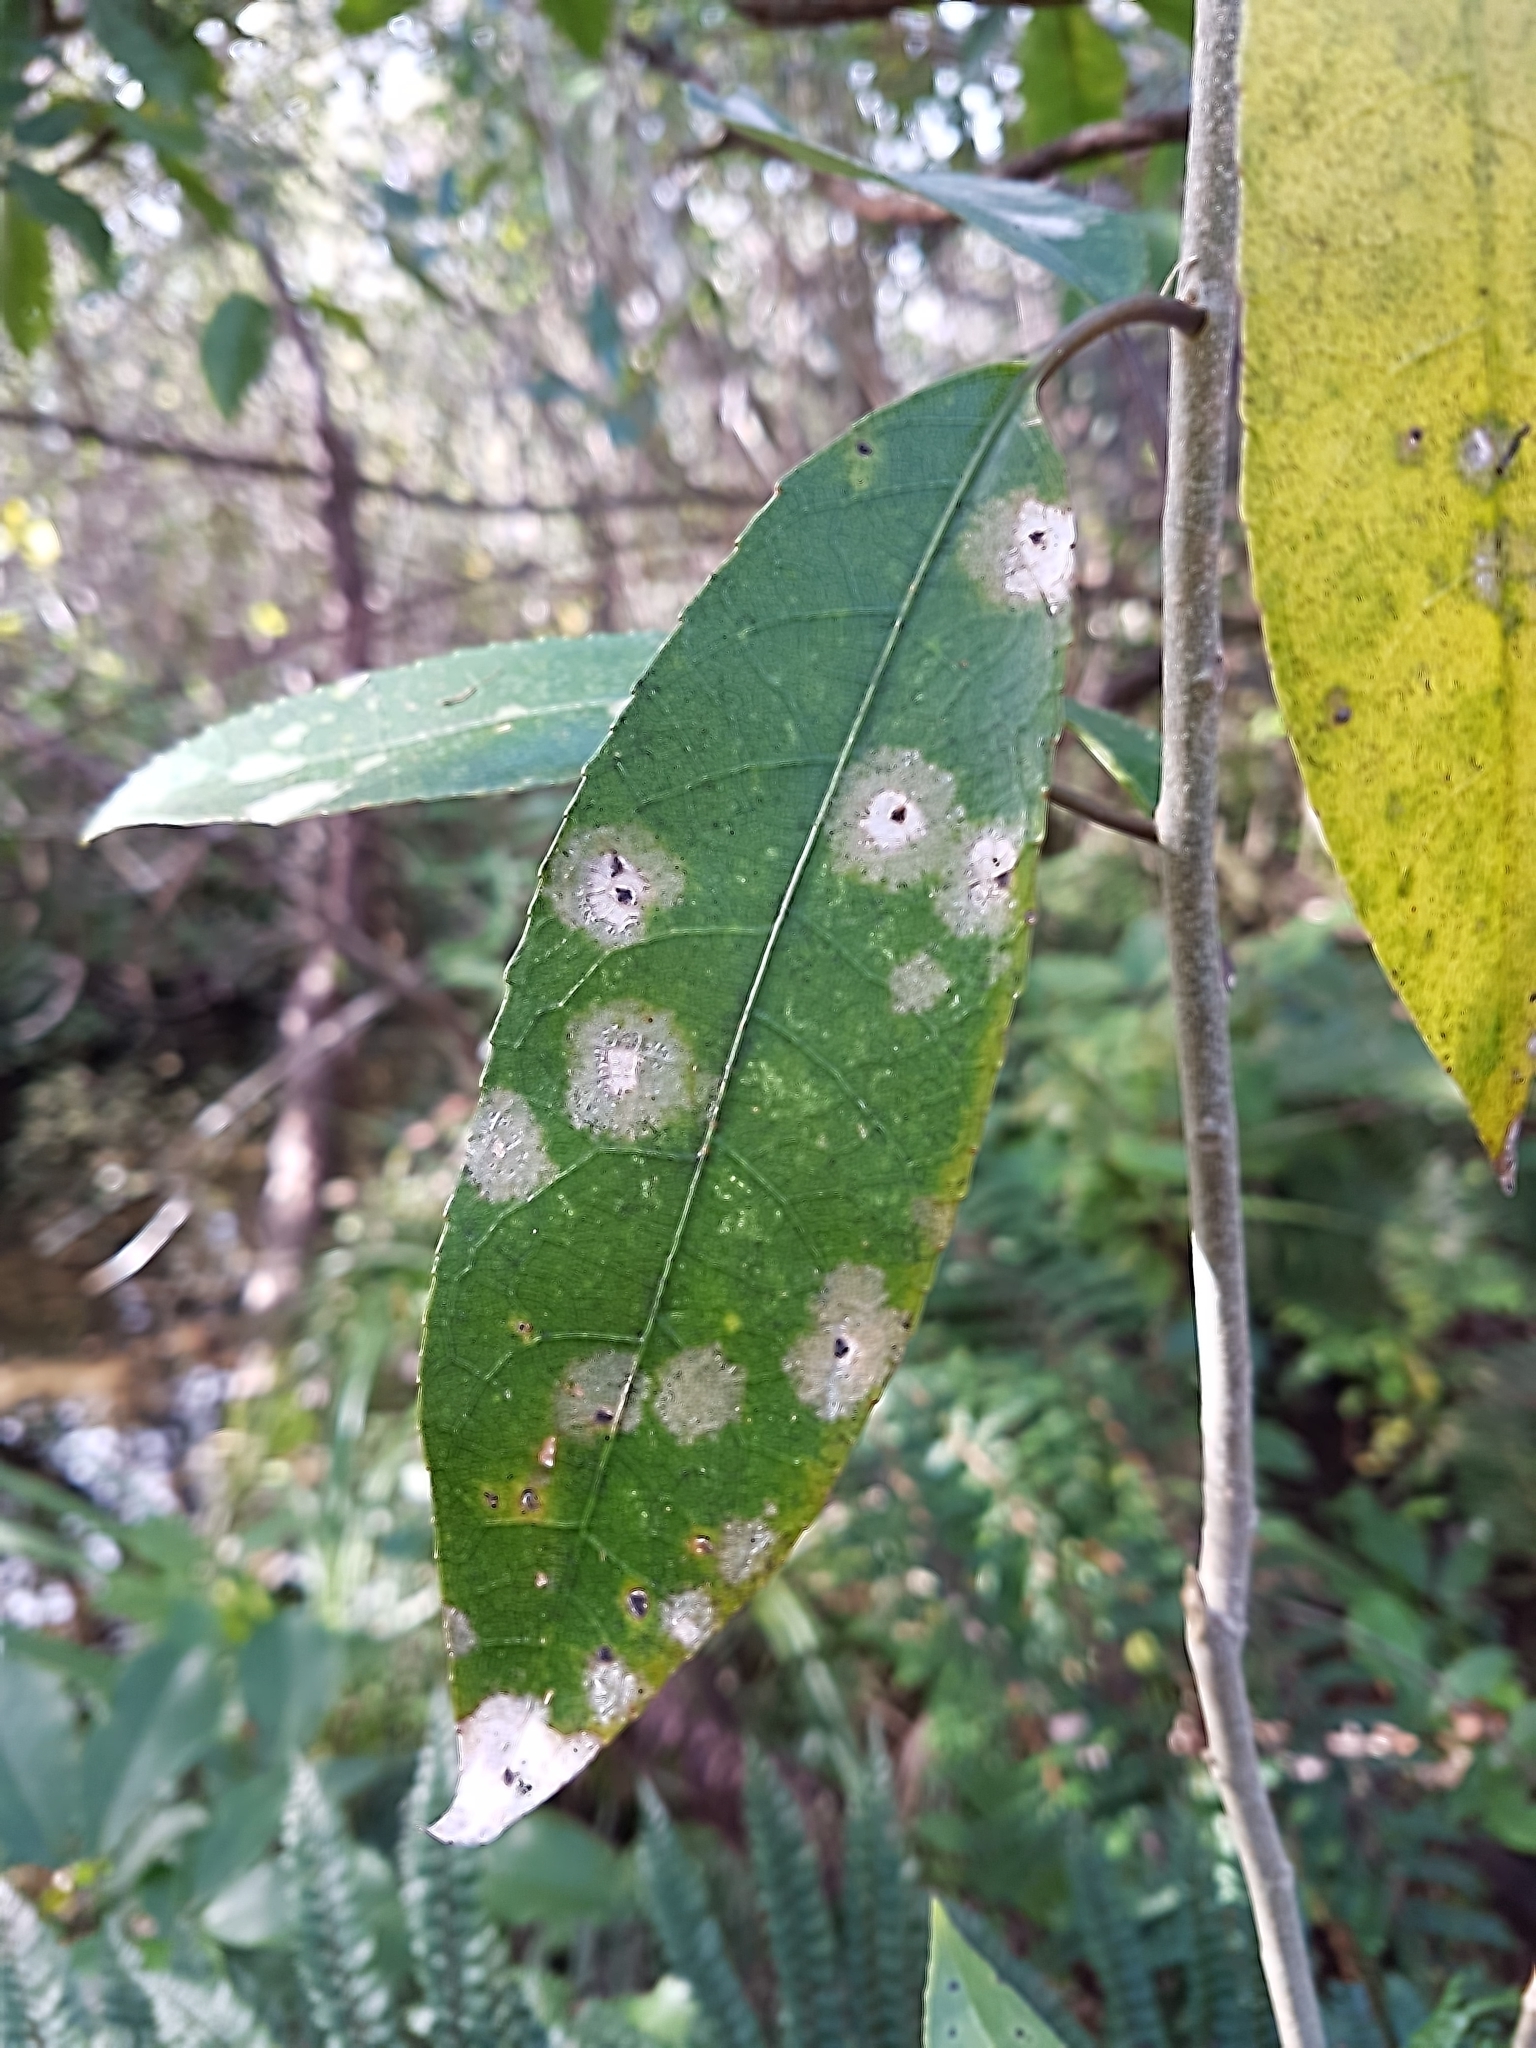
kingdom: Fungi
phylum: Ascomycota
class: Dothideomycetes
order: Botryosphaeriales
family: Planistromellaceae
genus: Diplochorella
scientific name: Diplochorella colensoi
